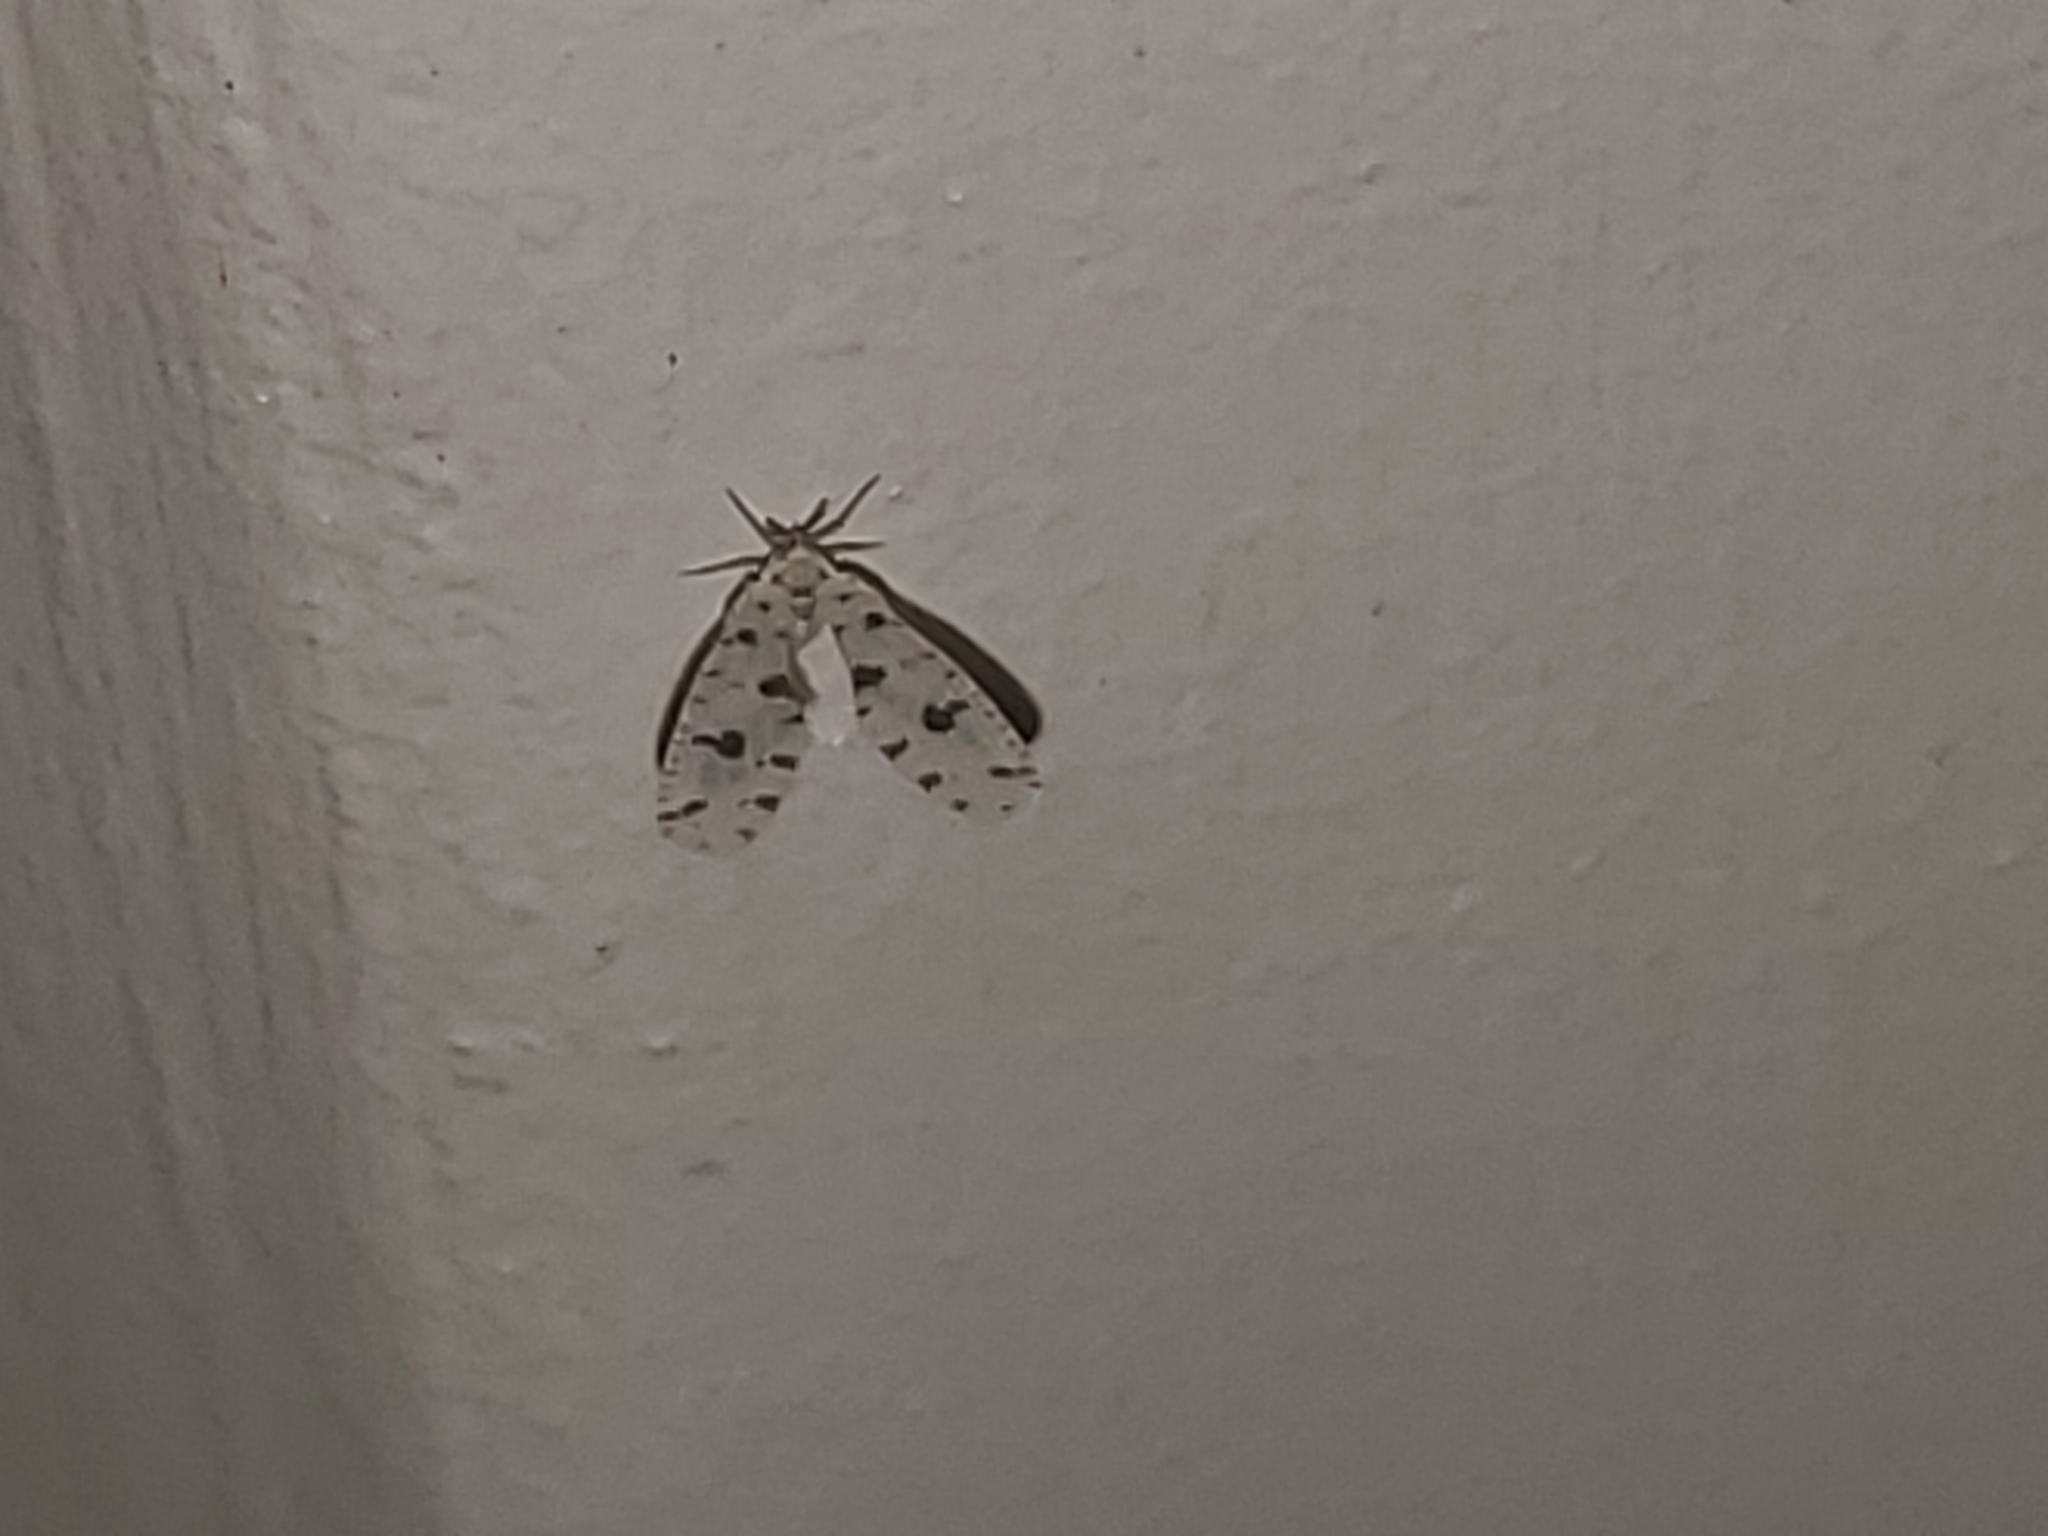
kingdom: Animalia
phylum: Arthropoda
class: Insecta
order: Hemiptera
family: Derbidae
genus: Sikaiana
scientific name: Sikaiana harti
